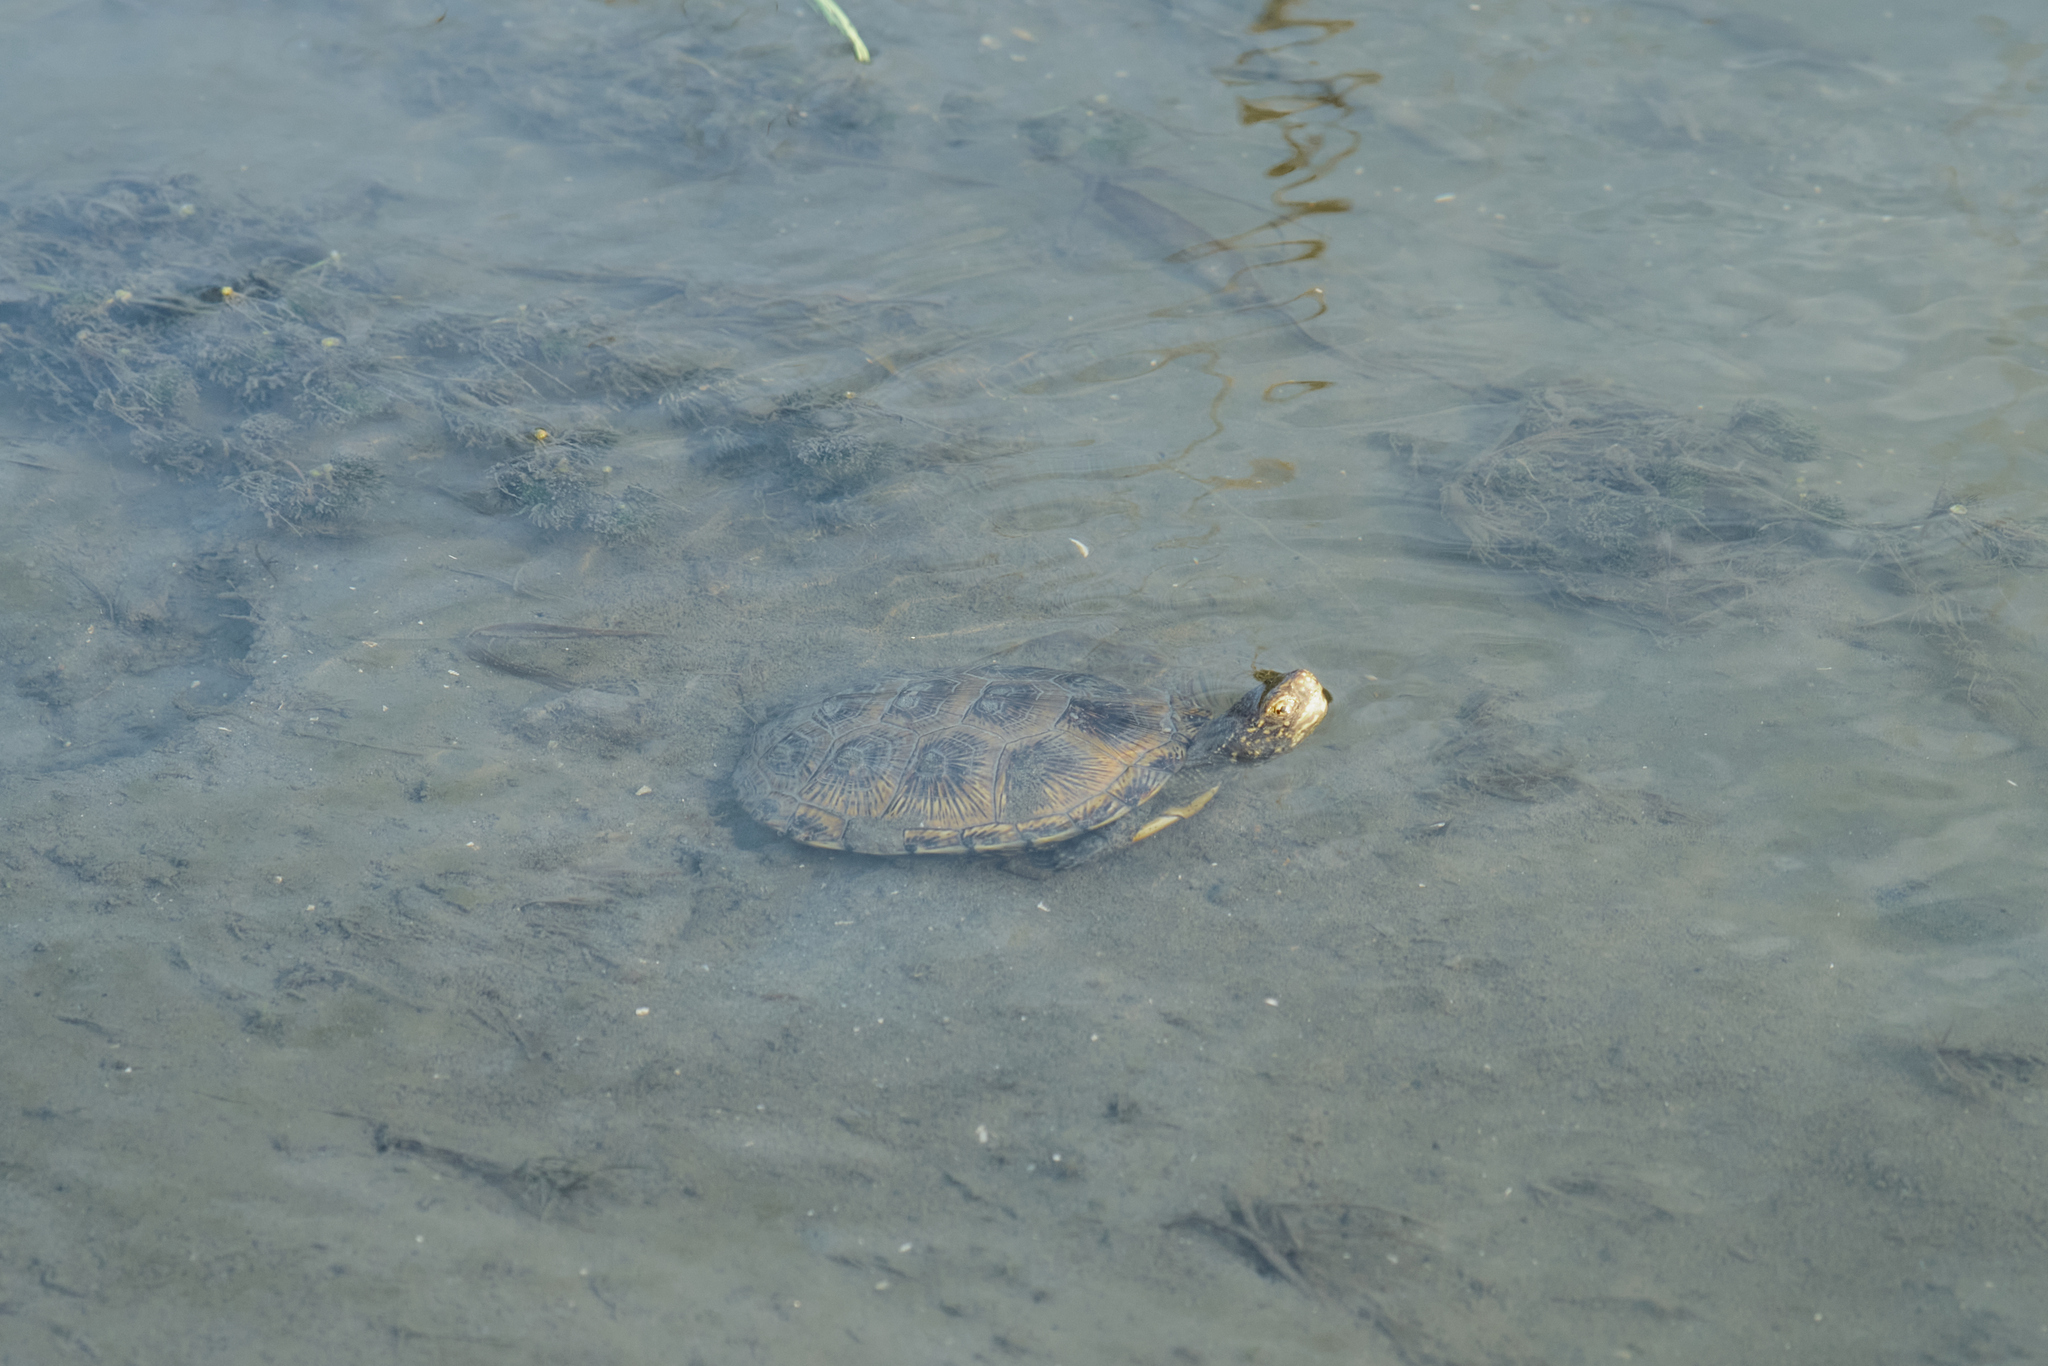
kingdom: Animalia
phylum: Chordata
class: Testudines
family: Emydidae
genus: Emys
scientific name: Emys orbicularis
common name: European pond turtle
